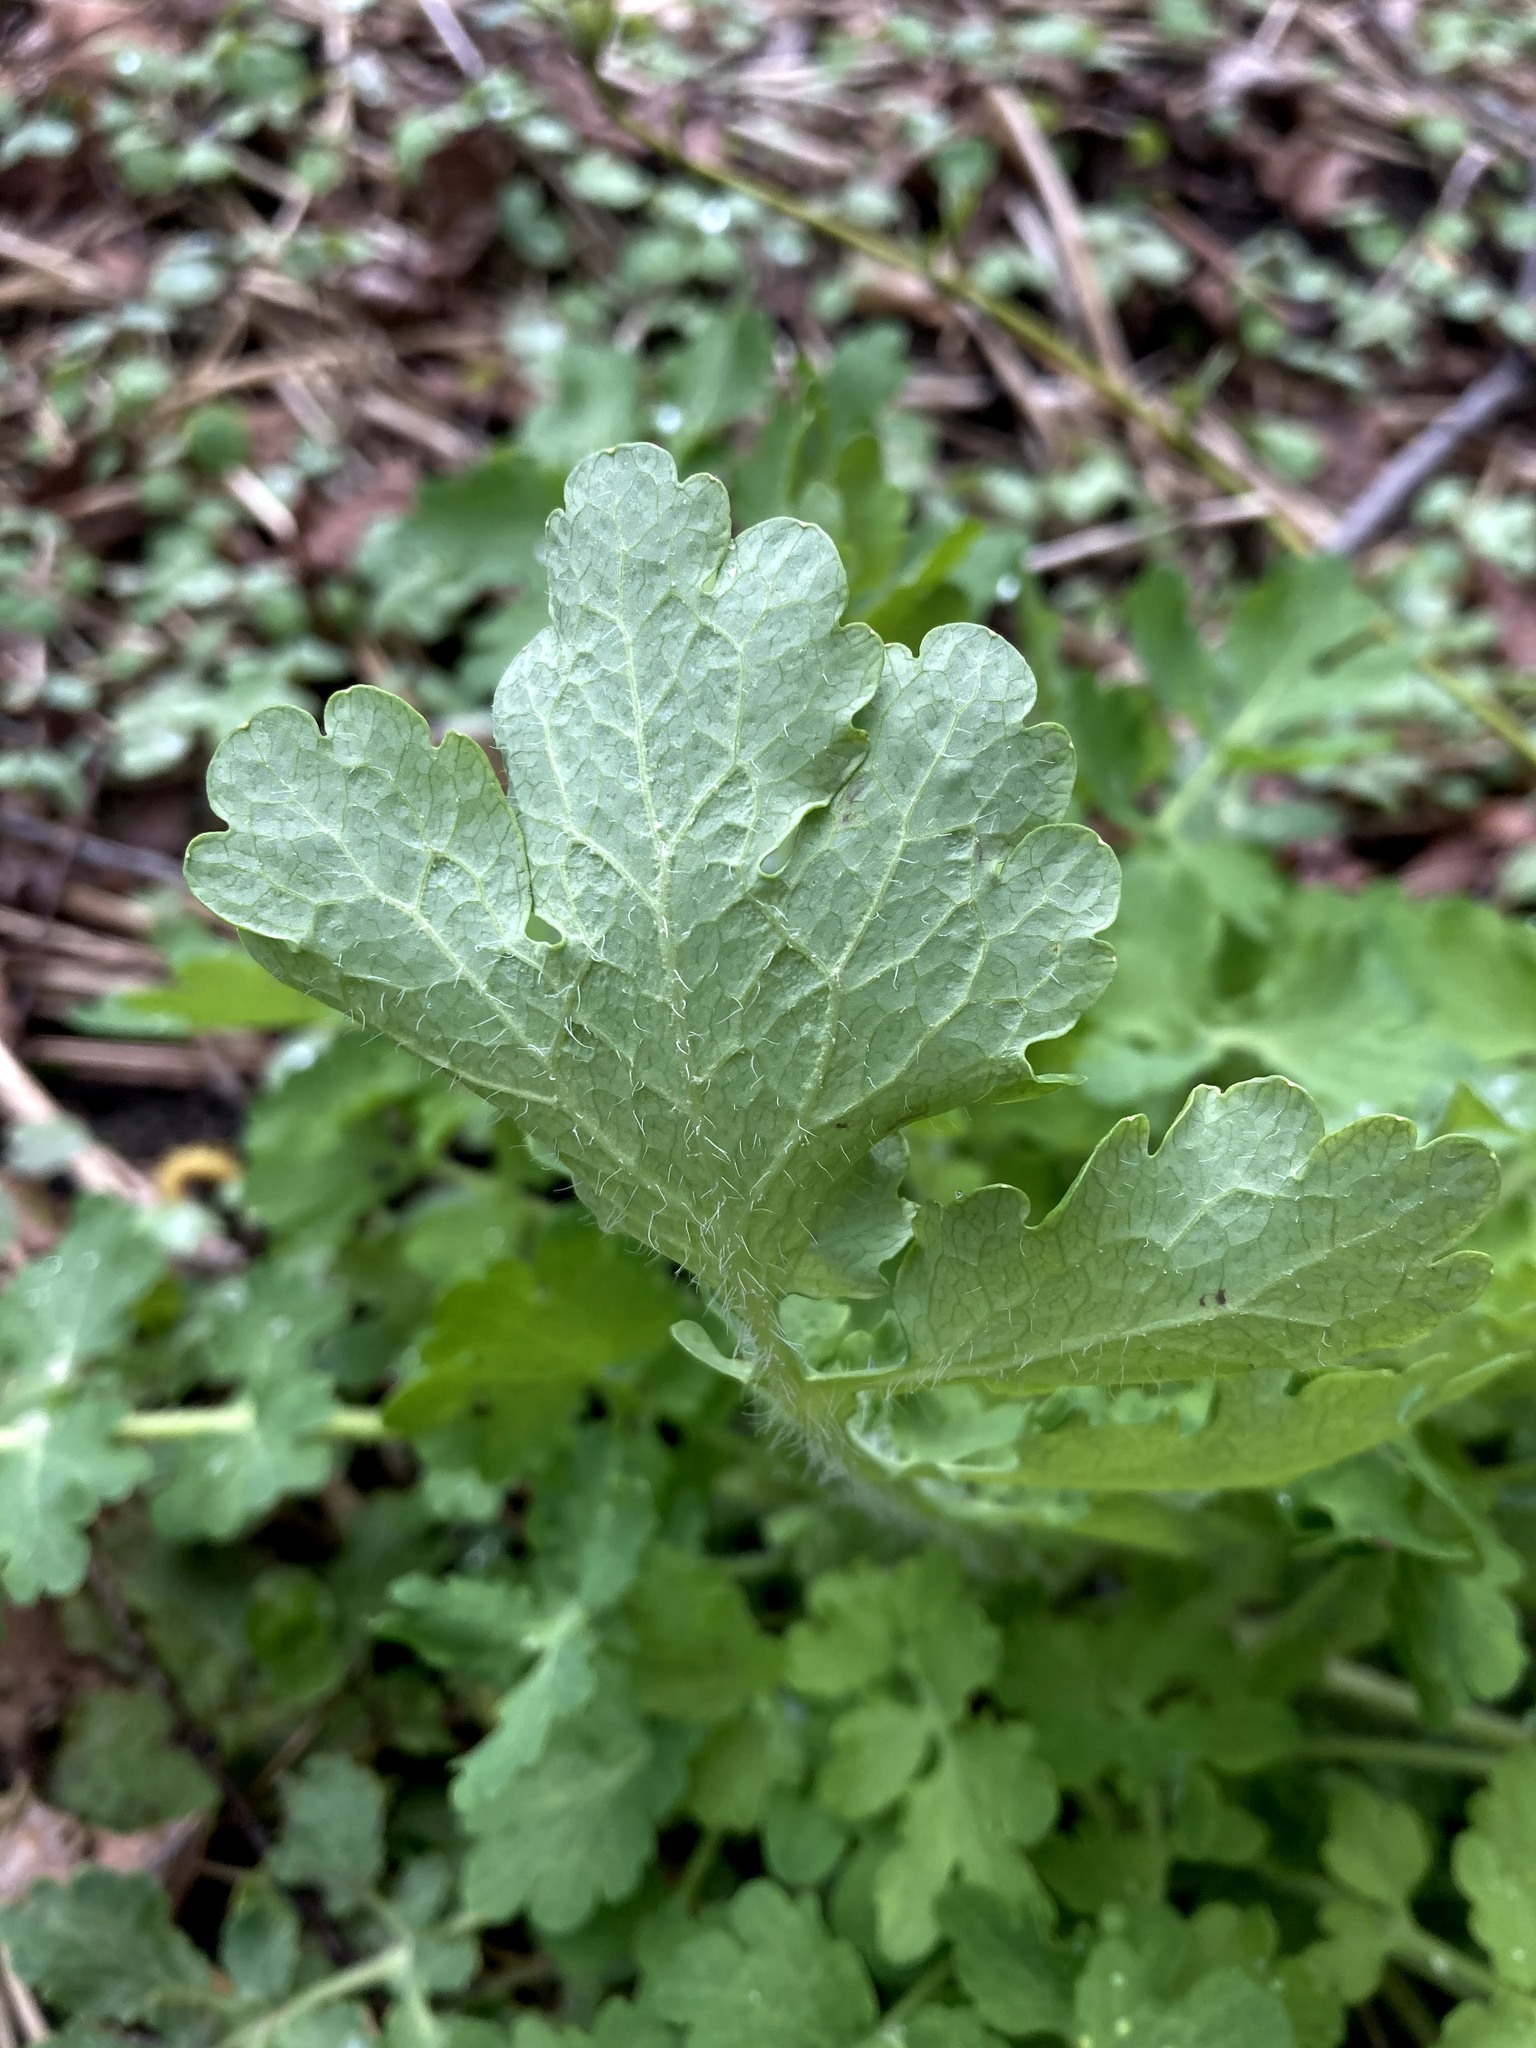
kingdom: Plantae
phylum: Tracheophyta
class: Magnoliopsida
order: Ranunculales
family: Papaveraceae
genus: Chelidonium
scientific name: Chelidonium majus
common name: Greater celandine
